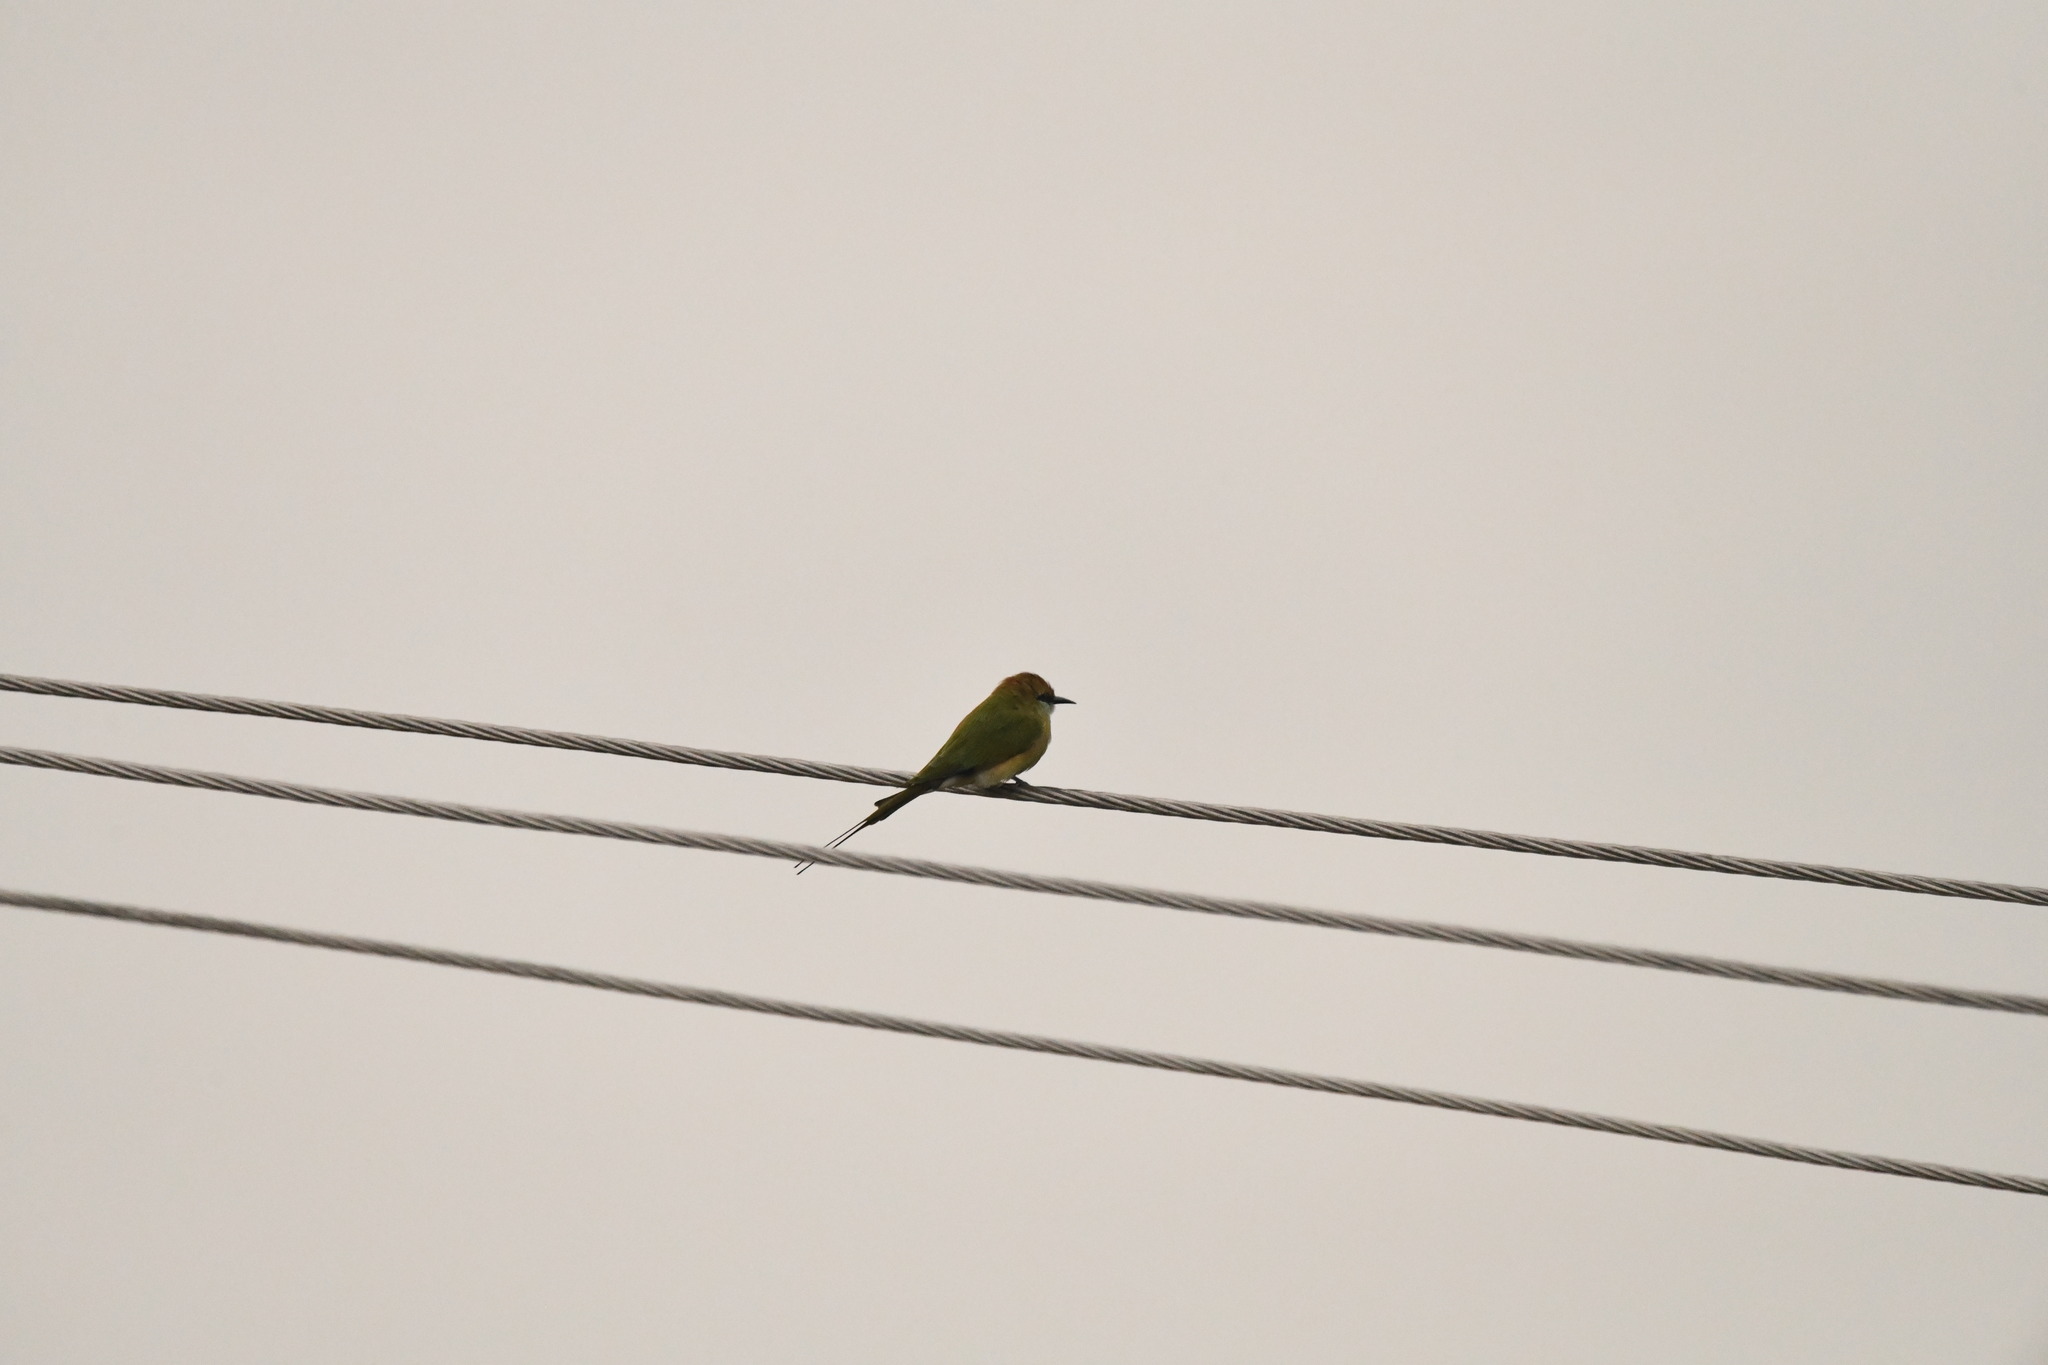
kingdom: Animalia
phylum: Chordata
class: Aves
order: Coraciiformes
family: Meropidae
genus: Merops
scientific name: Merops orientalis
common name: Green bee-eater
